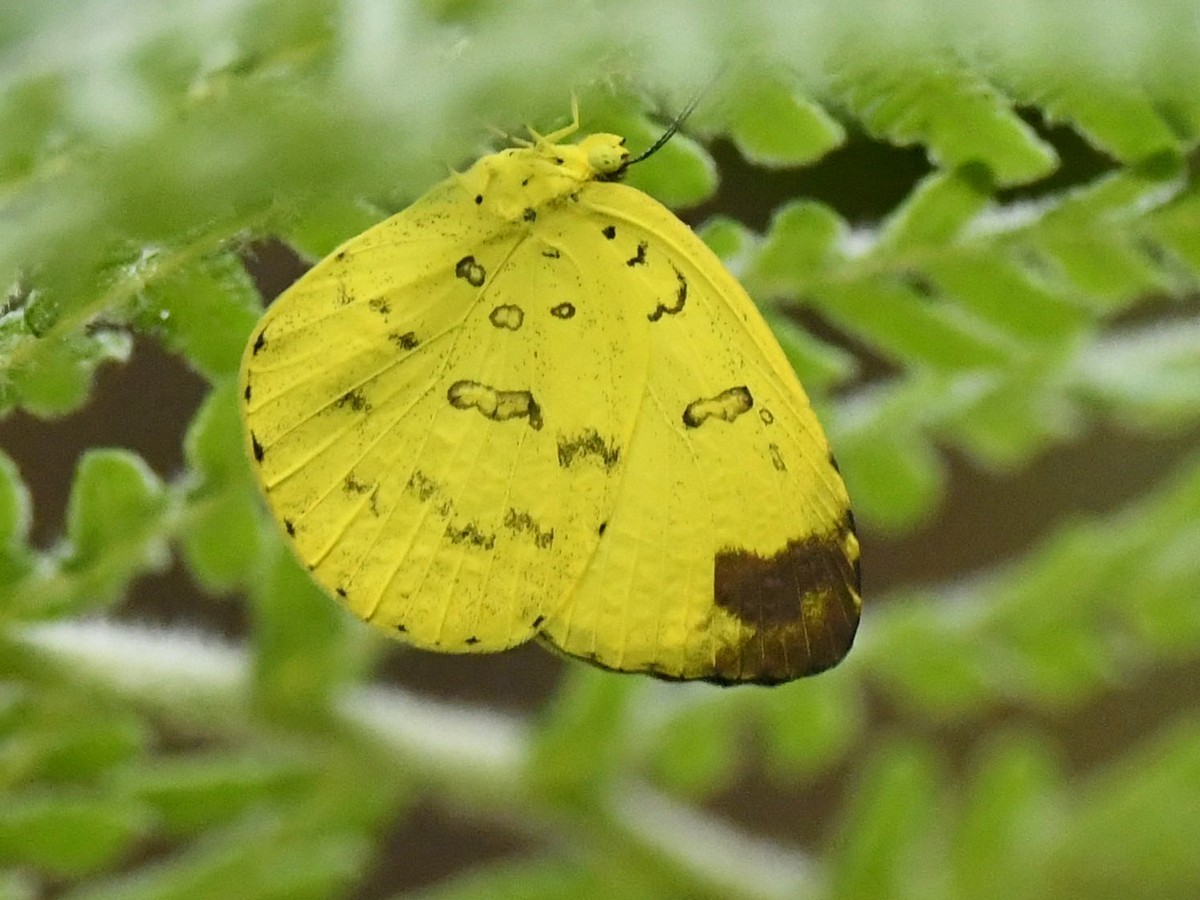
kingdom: Animalia
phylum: Arthropoda
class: Insecta
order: Lepidoptera
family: Pieridae
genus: Eurema
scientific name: Eurema blanda
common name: Three-spot grass yellow
